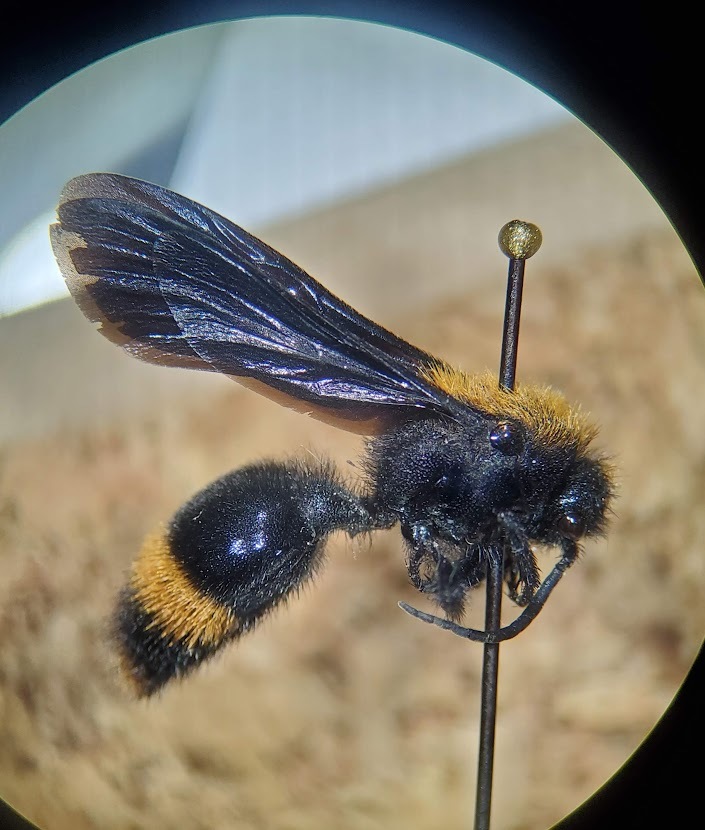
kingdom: Animalia
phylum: Arthropoda
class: Insecta
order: Hymenoptera
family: Mutillidae
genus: Dasymutilla
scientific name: Dasymutilla occidentalis
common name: Common eastern velvet ant
